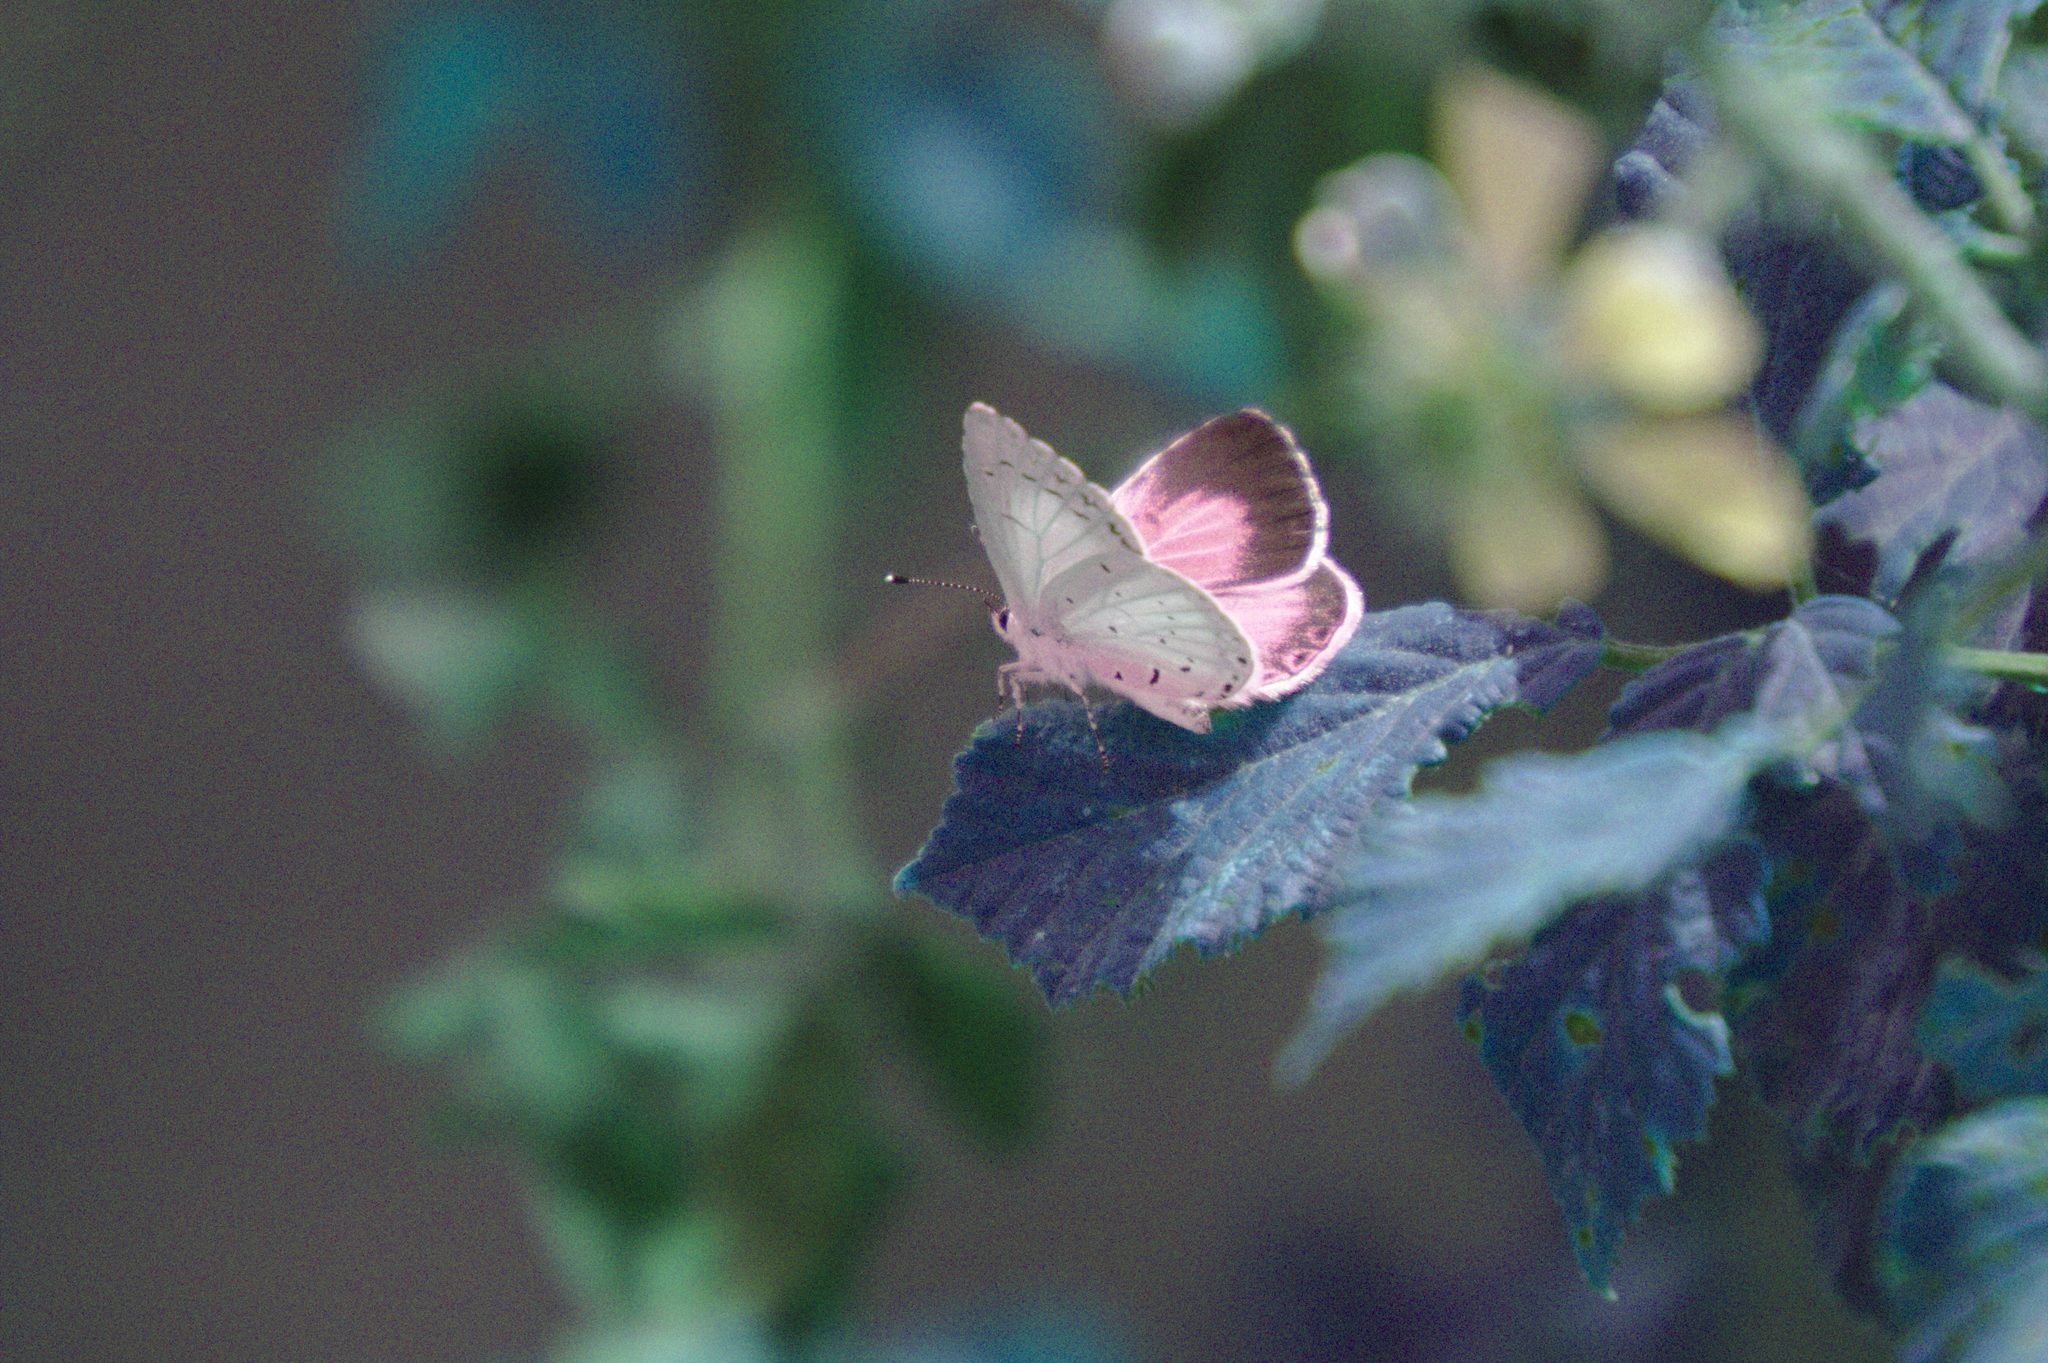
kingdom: Animalia
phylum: Arthropoda
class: Insecta
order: Lepidoptera
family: Lycaenidae
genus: Celastrina
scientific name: Celastrina argiolus
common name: Holly blue
